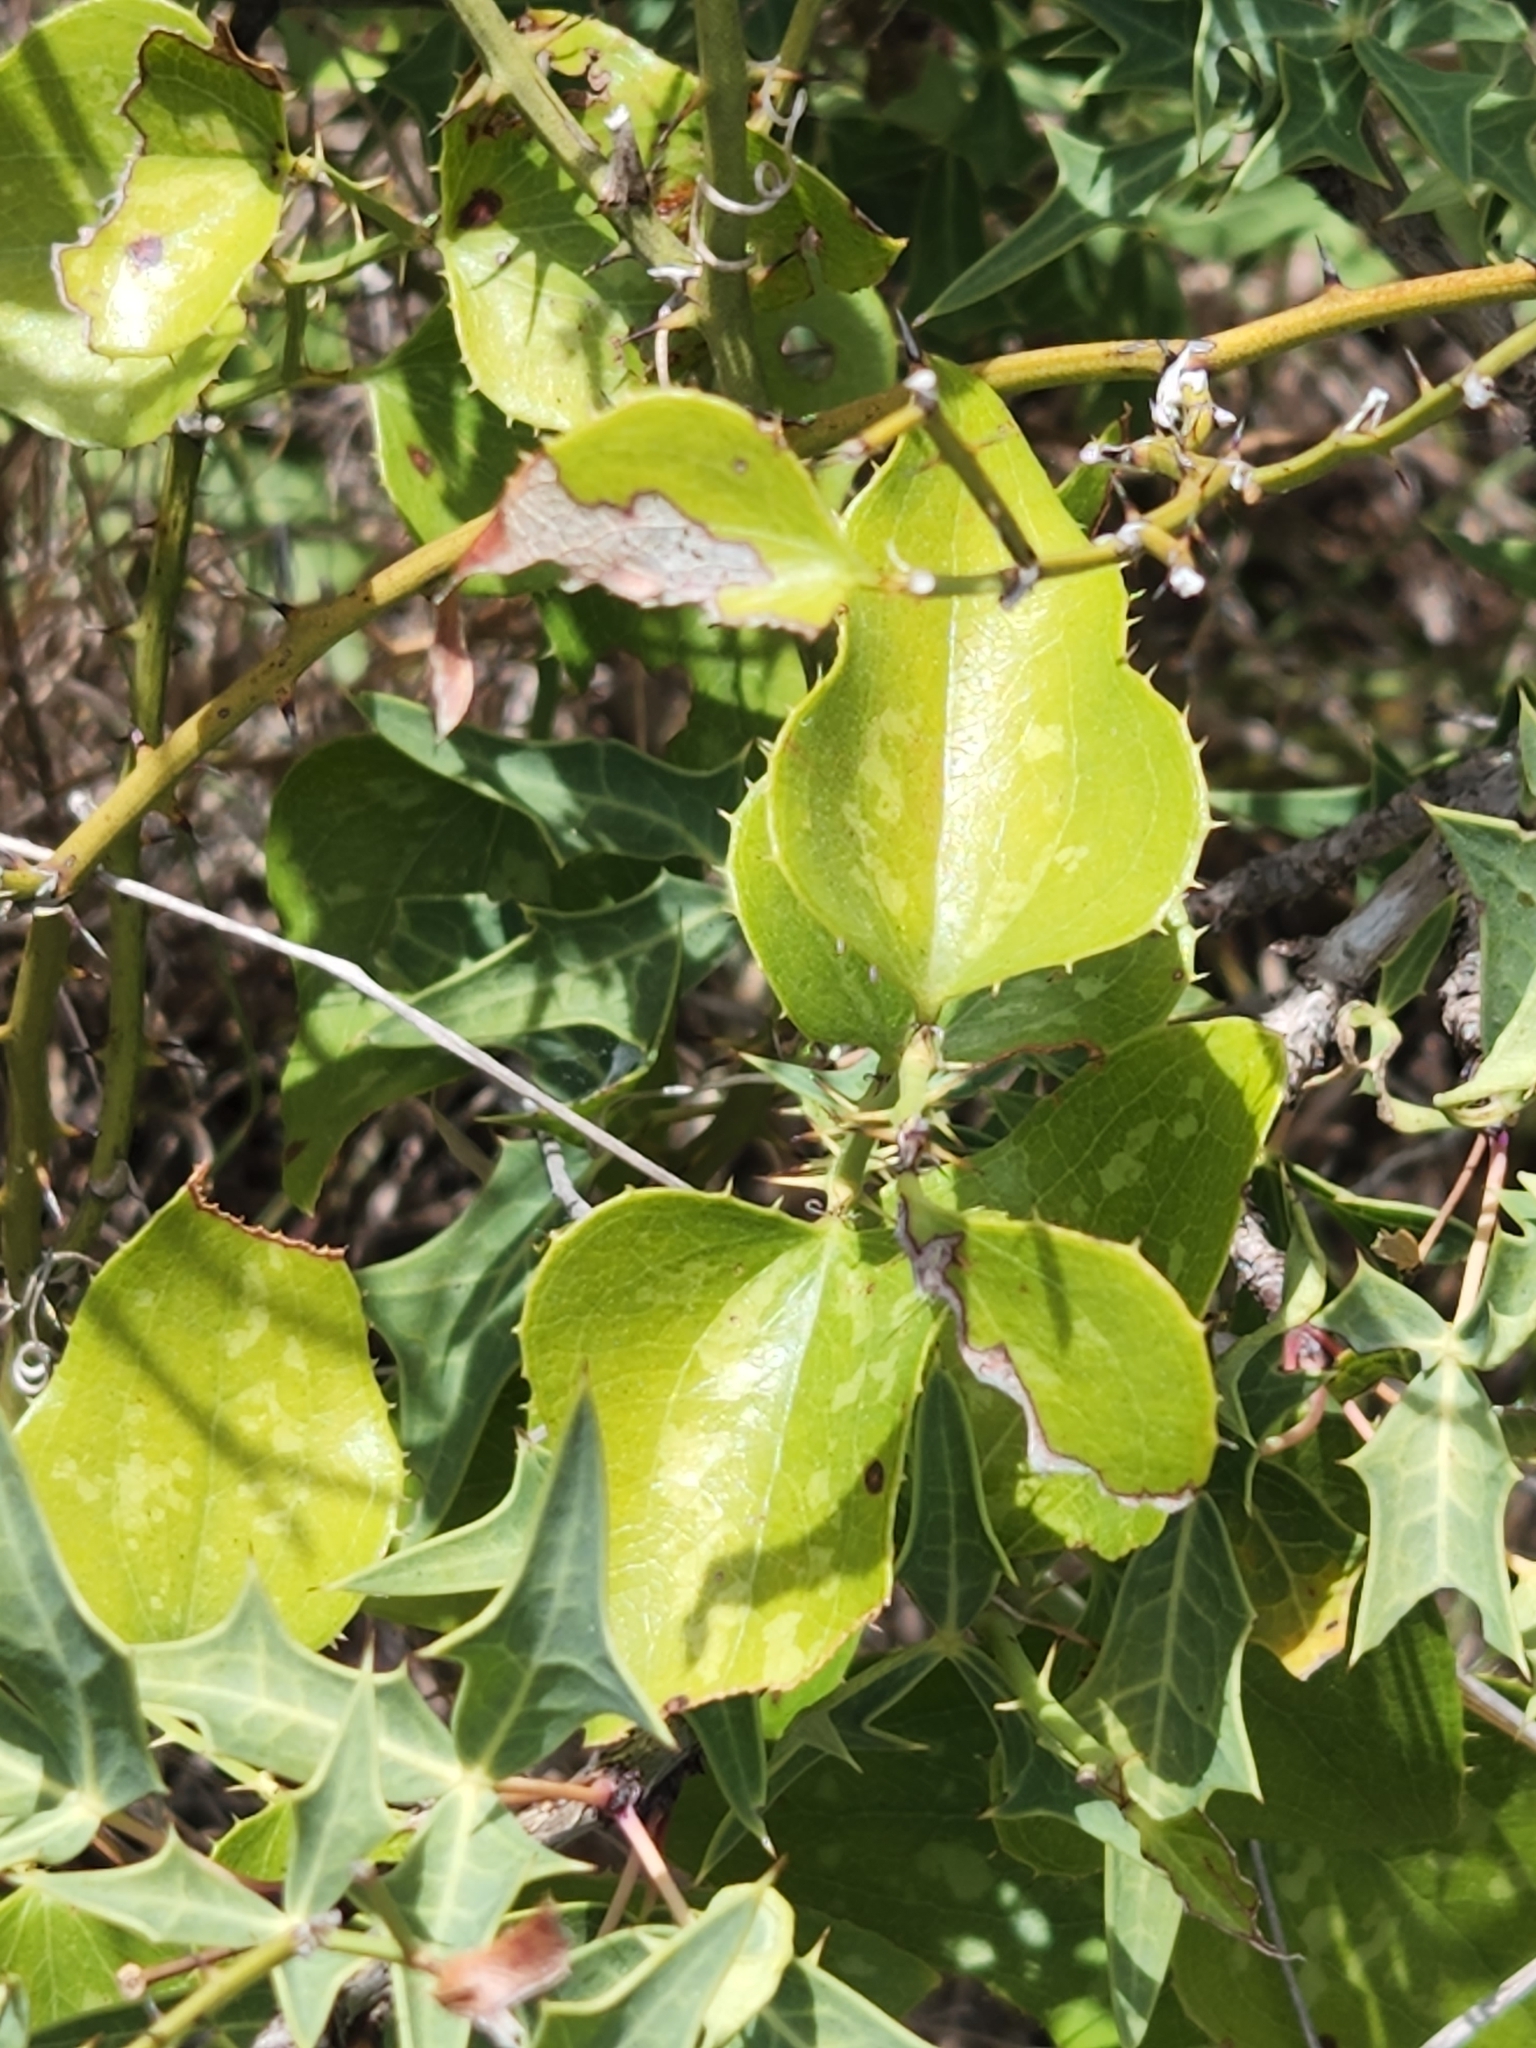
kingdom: Plantae
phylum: Tracheophyta
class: Liliopsida
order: Liliales
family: Smilacaceae
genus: Smilax
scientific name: Smilax bona-nox
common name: Catbrier
